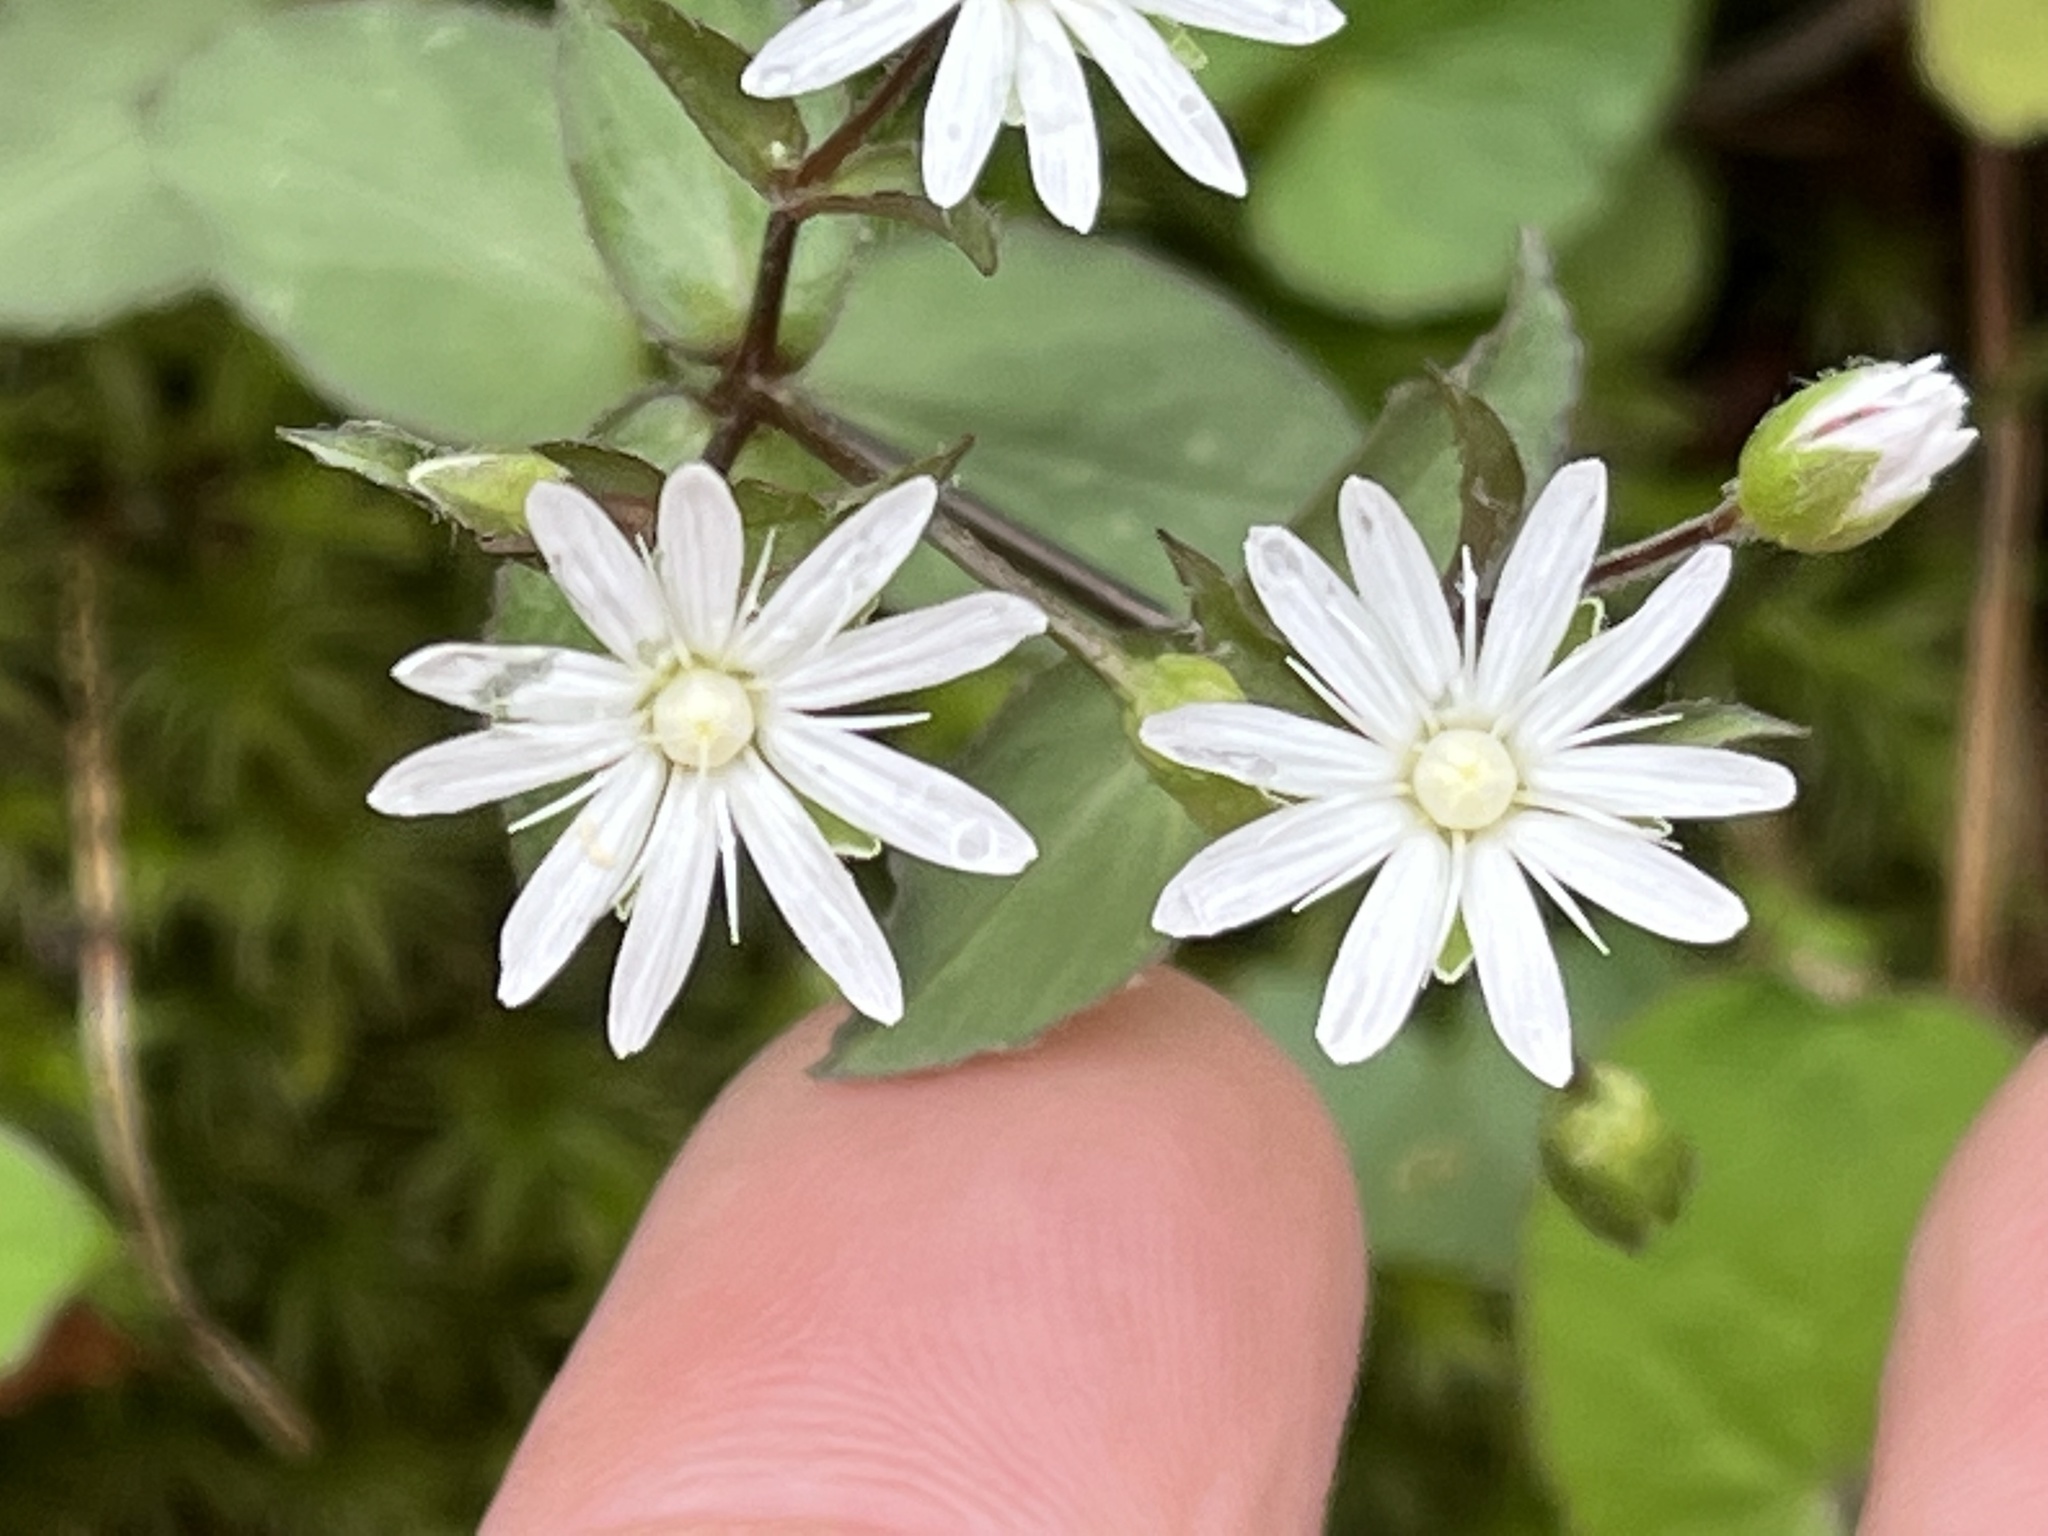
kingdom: Plantae
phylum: Tracheophyta
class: Magnoliopsida
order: Caryophyllales
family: Caryophyllaceae
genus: Stellaria
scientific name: Stellaria pubera
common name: Star chickweed
